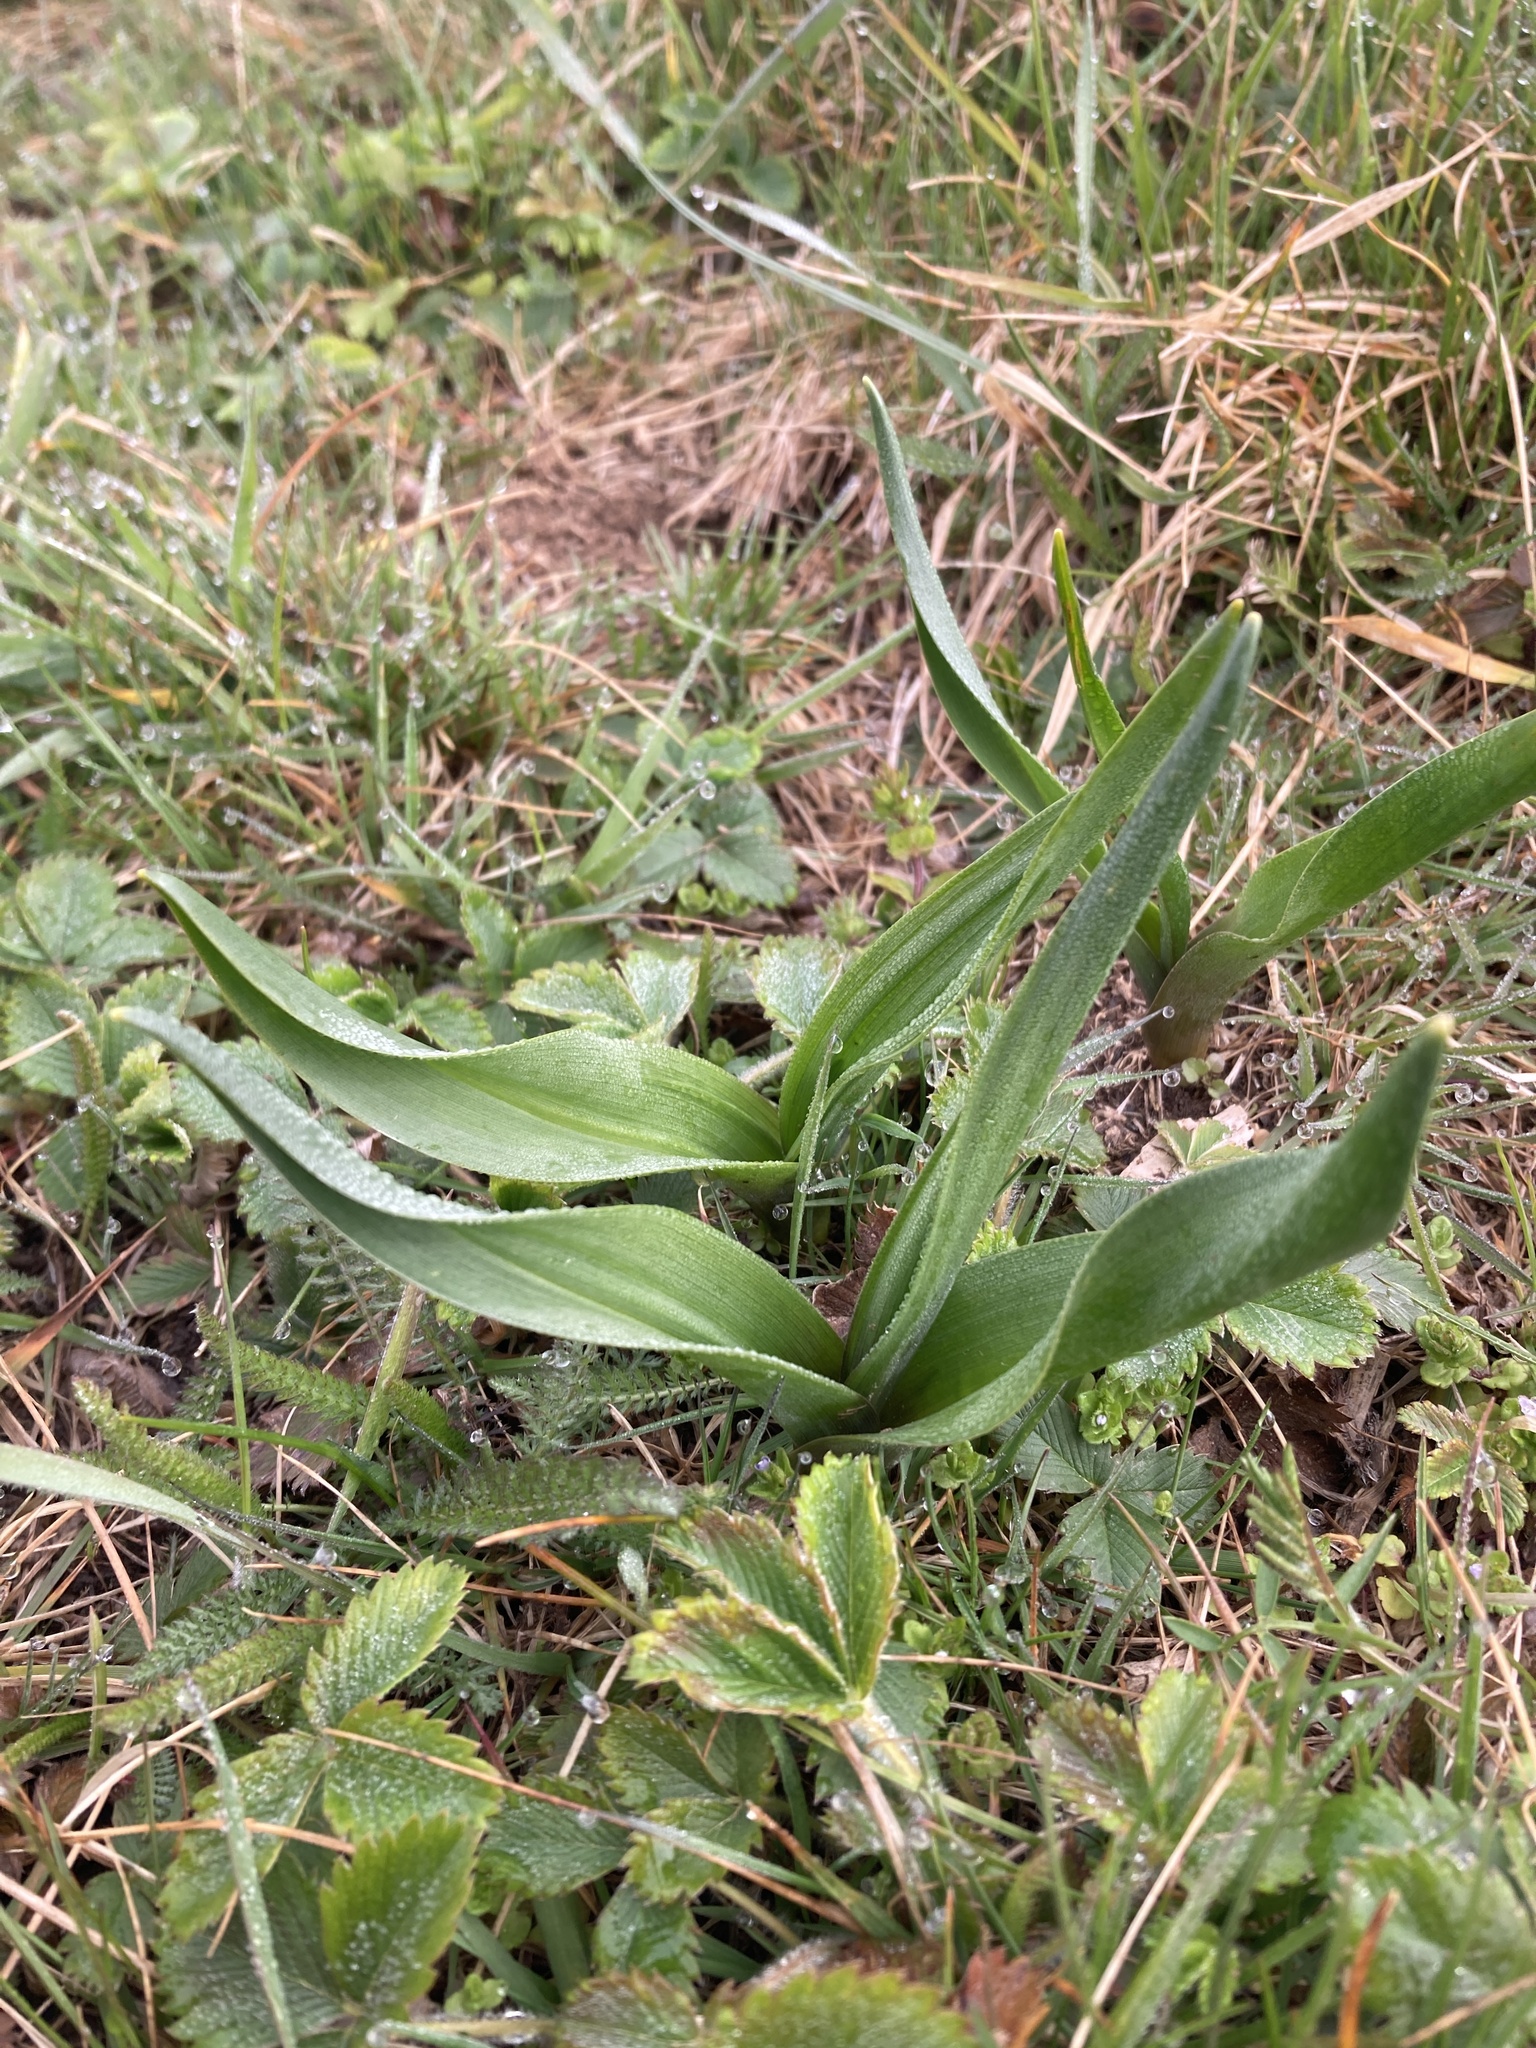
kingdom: Plantae
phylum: Tracheophyta
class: Liliopsida
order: Liliales
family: Colchicaceae
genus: Colchicum
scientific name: Colchicum autumnale
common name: Autumn crocus
